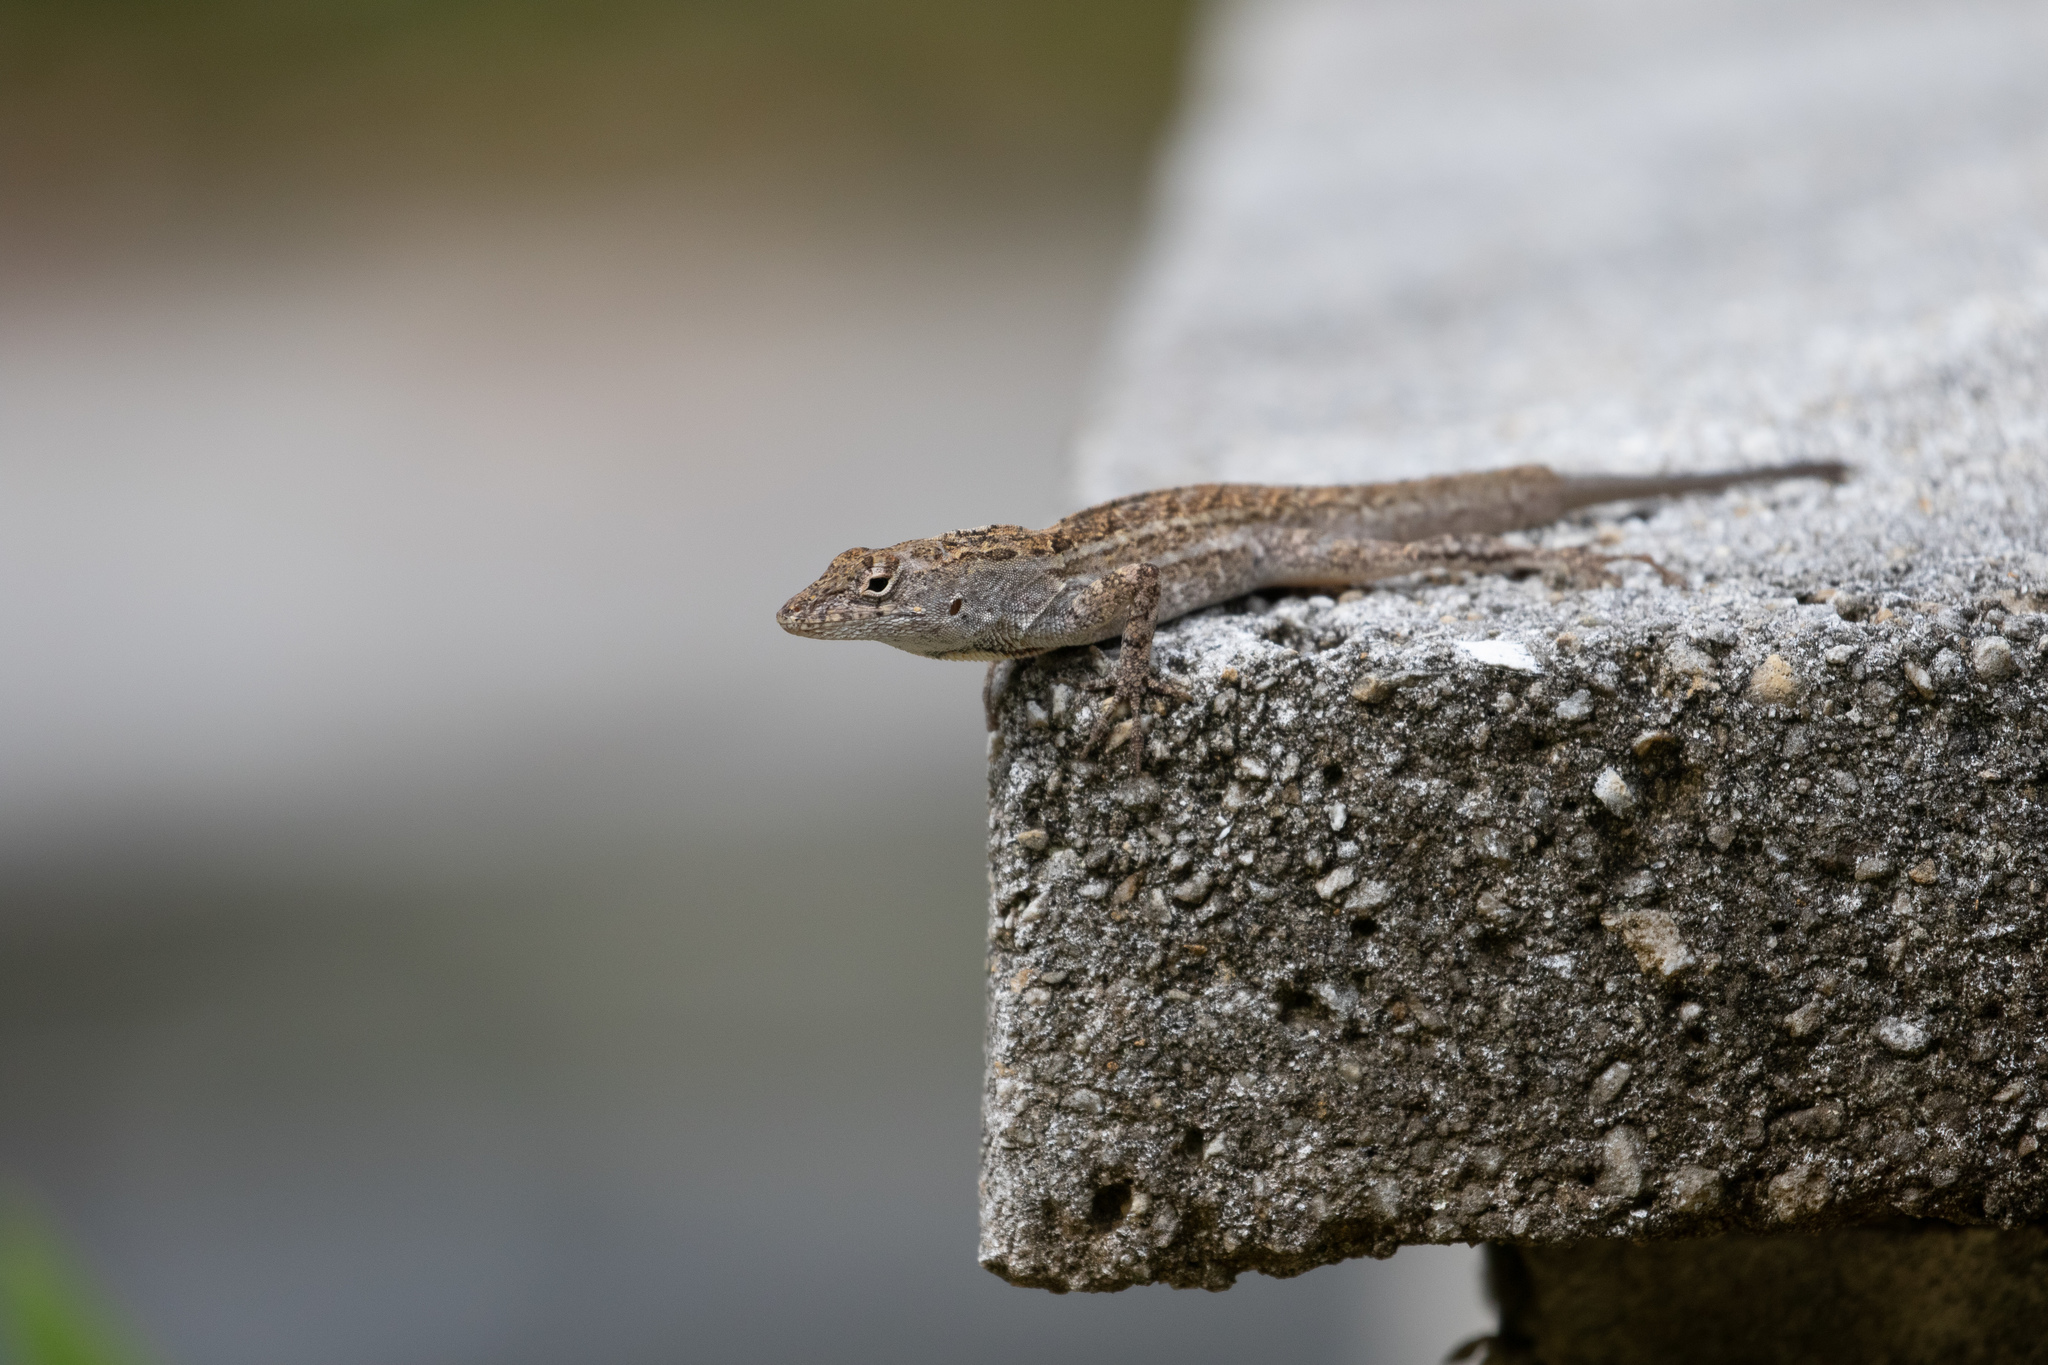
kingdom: Animalia
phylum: Chordata
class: Squamata
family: Dactyloidae
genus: Anolis
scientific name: Anolis sagrei
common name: Brown anole
